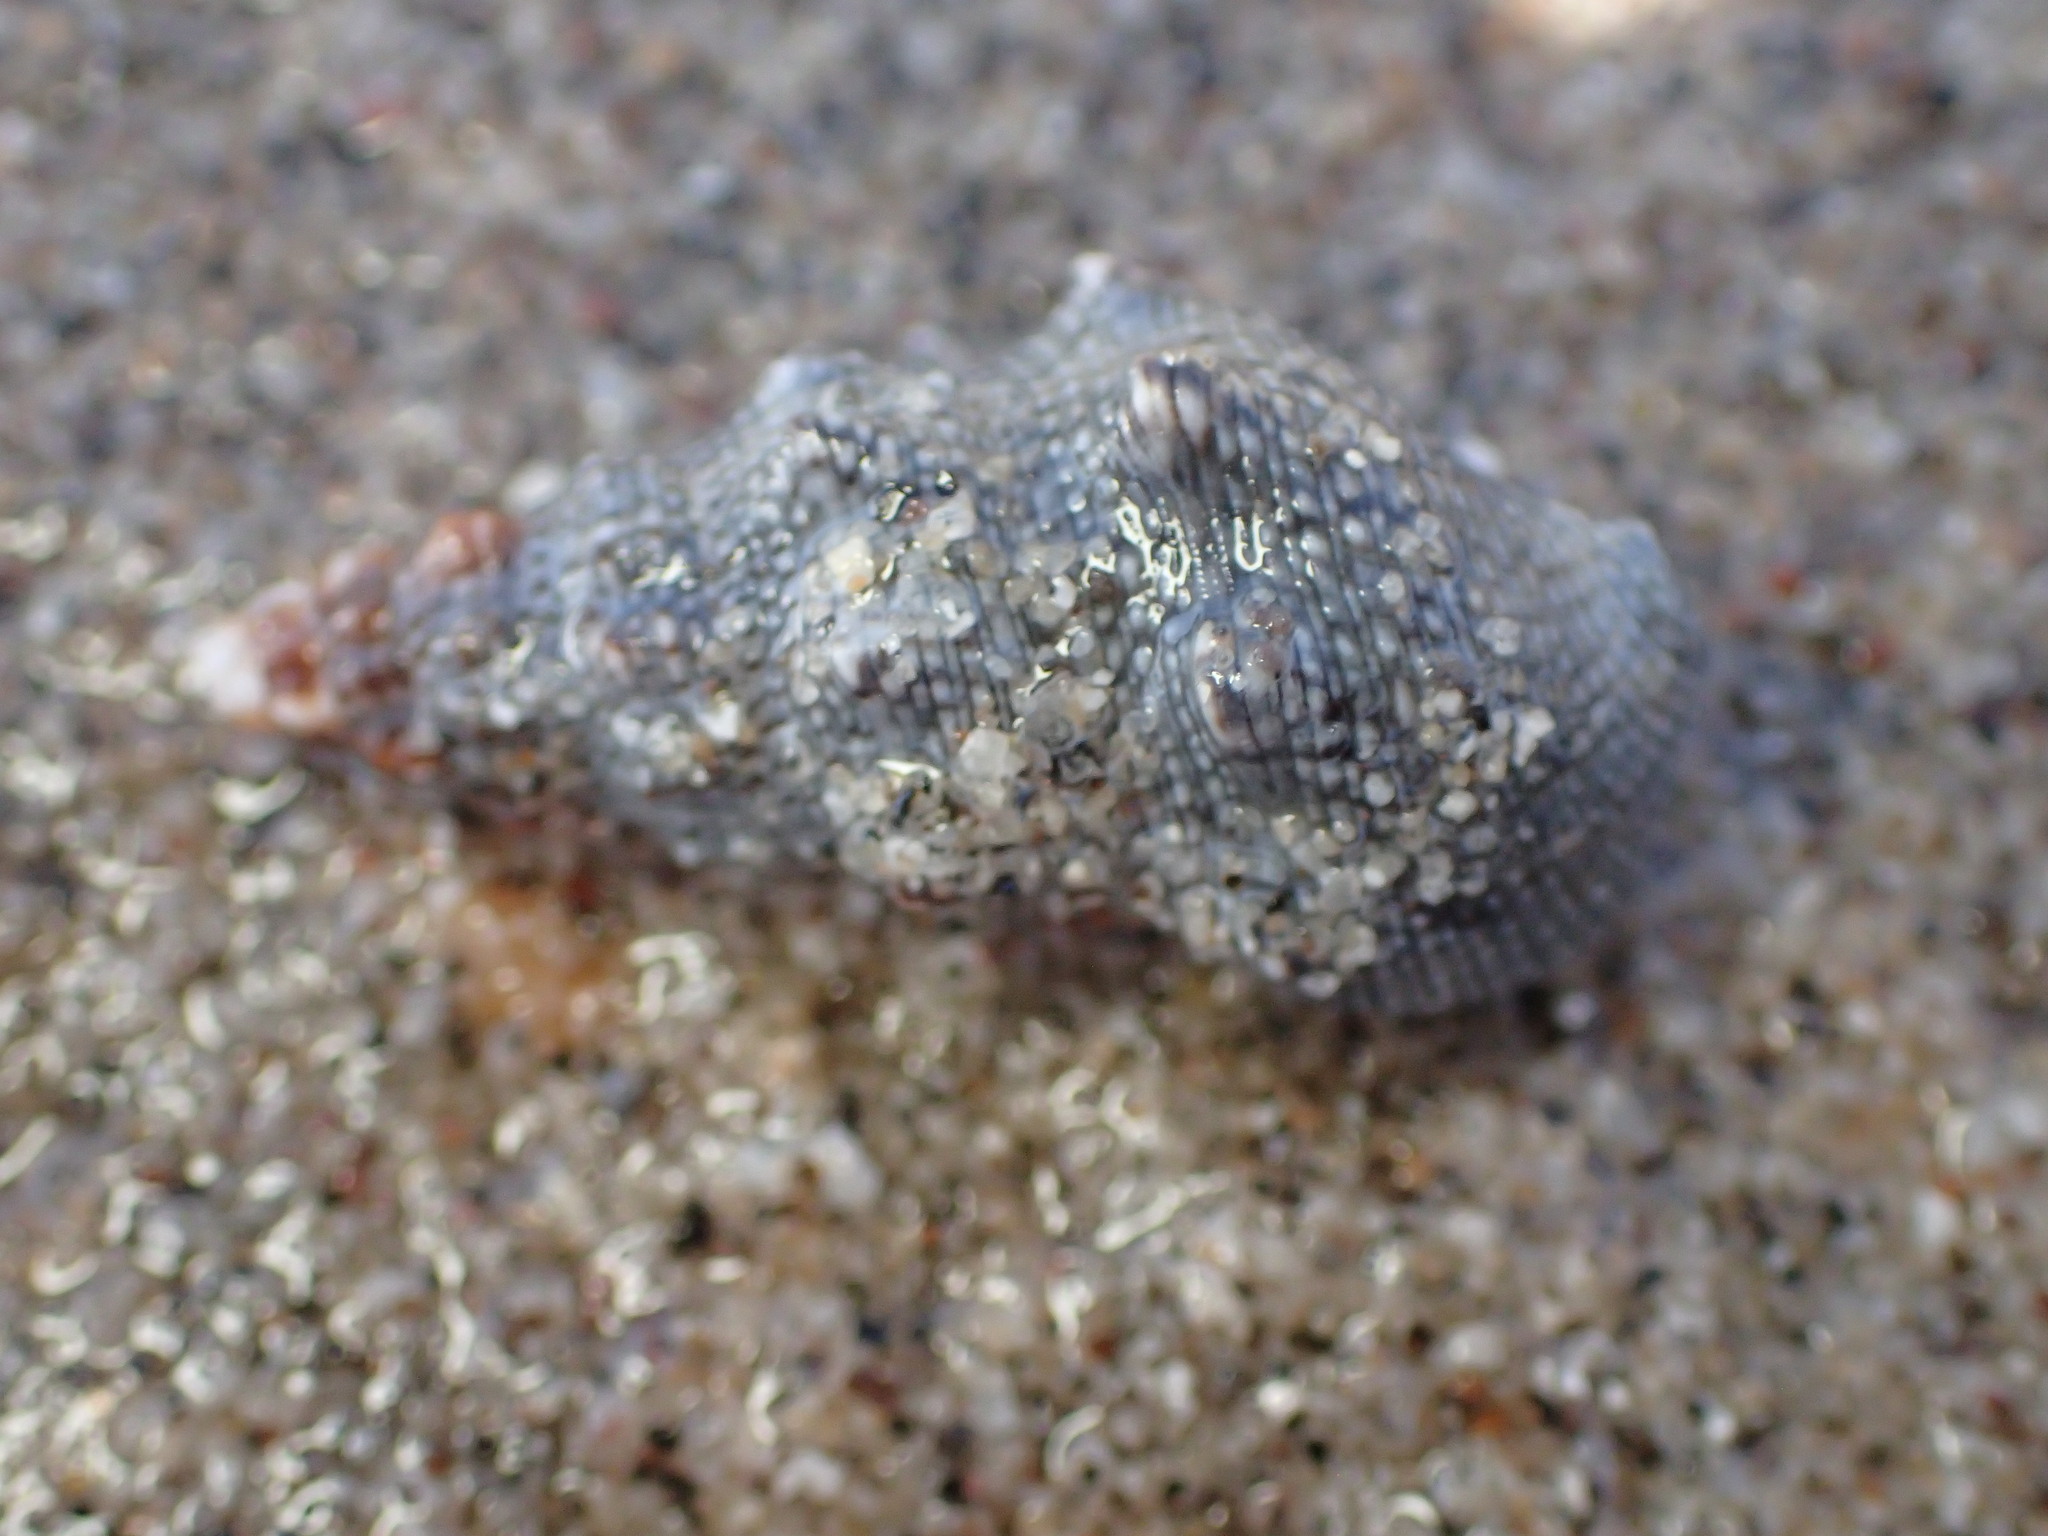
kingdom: Animalia
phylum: Mollusca
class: Gastropoda
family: Cerithiidae
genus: Cerithium
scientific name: Cerithium stercusmuscarum
